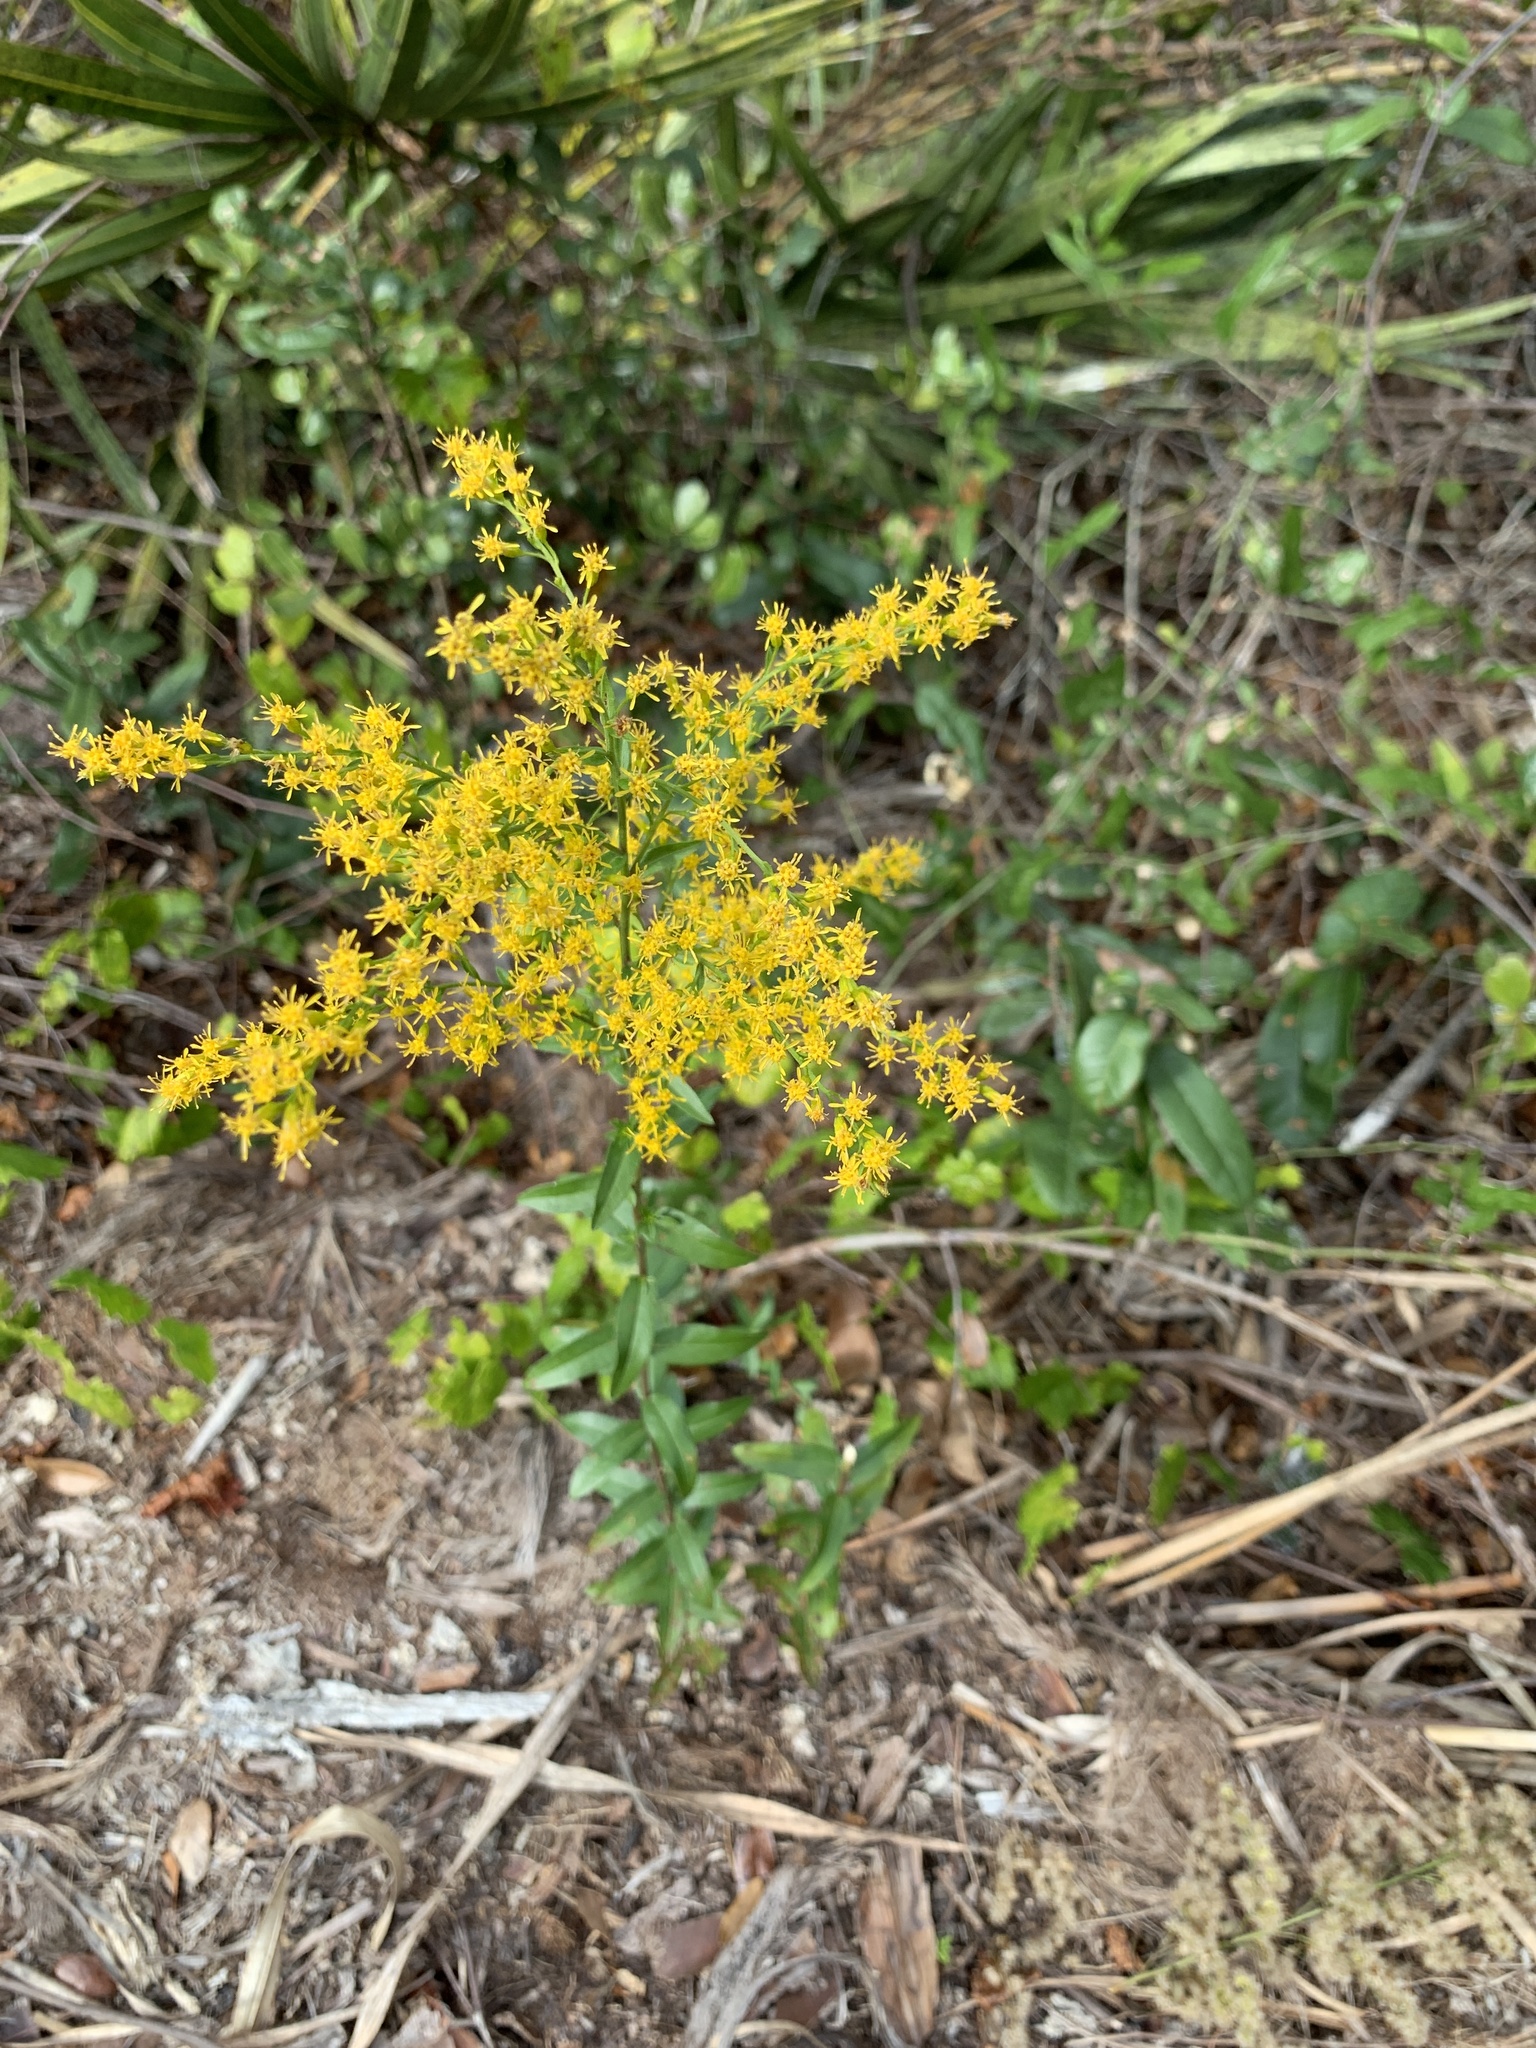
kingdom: Plantae
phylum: Tracheophyta
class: Magnoliopsida
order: Asterales
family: Asteraceae
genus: Solidago
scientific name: Solidago chapmanii
